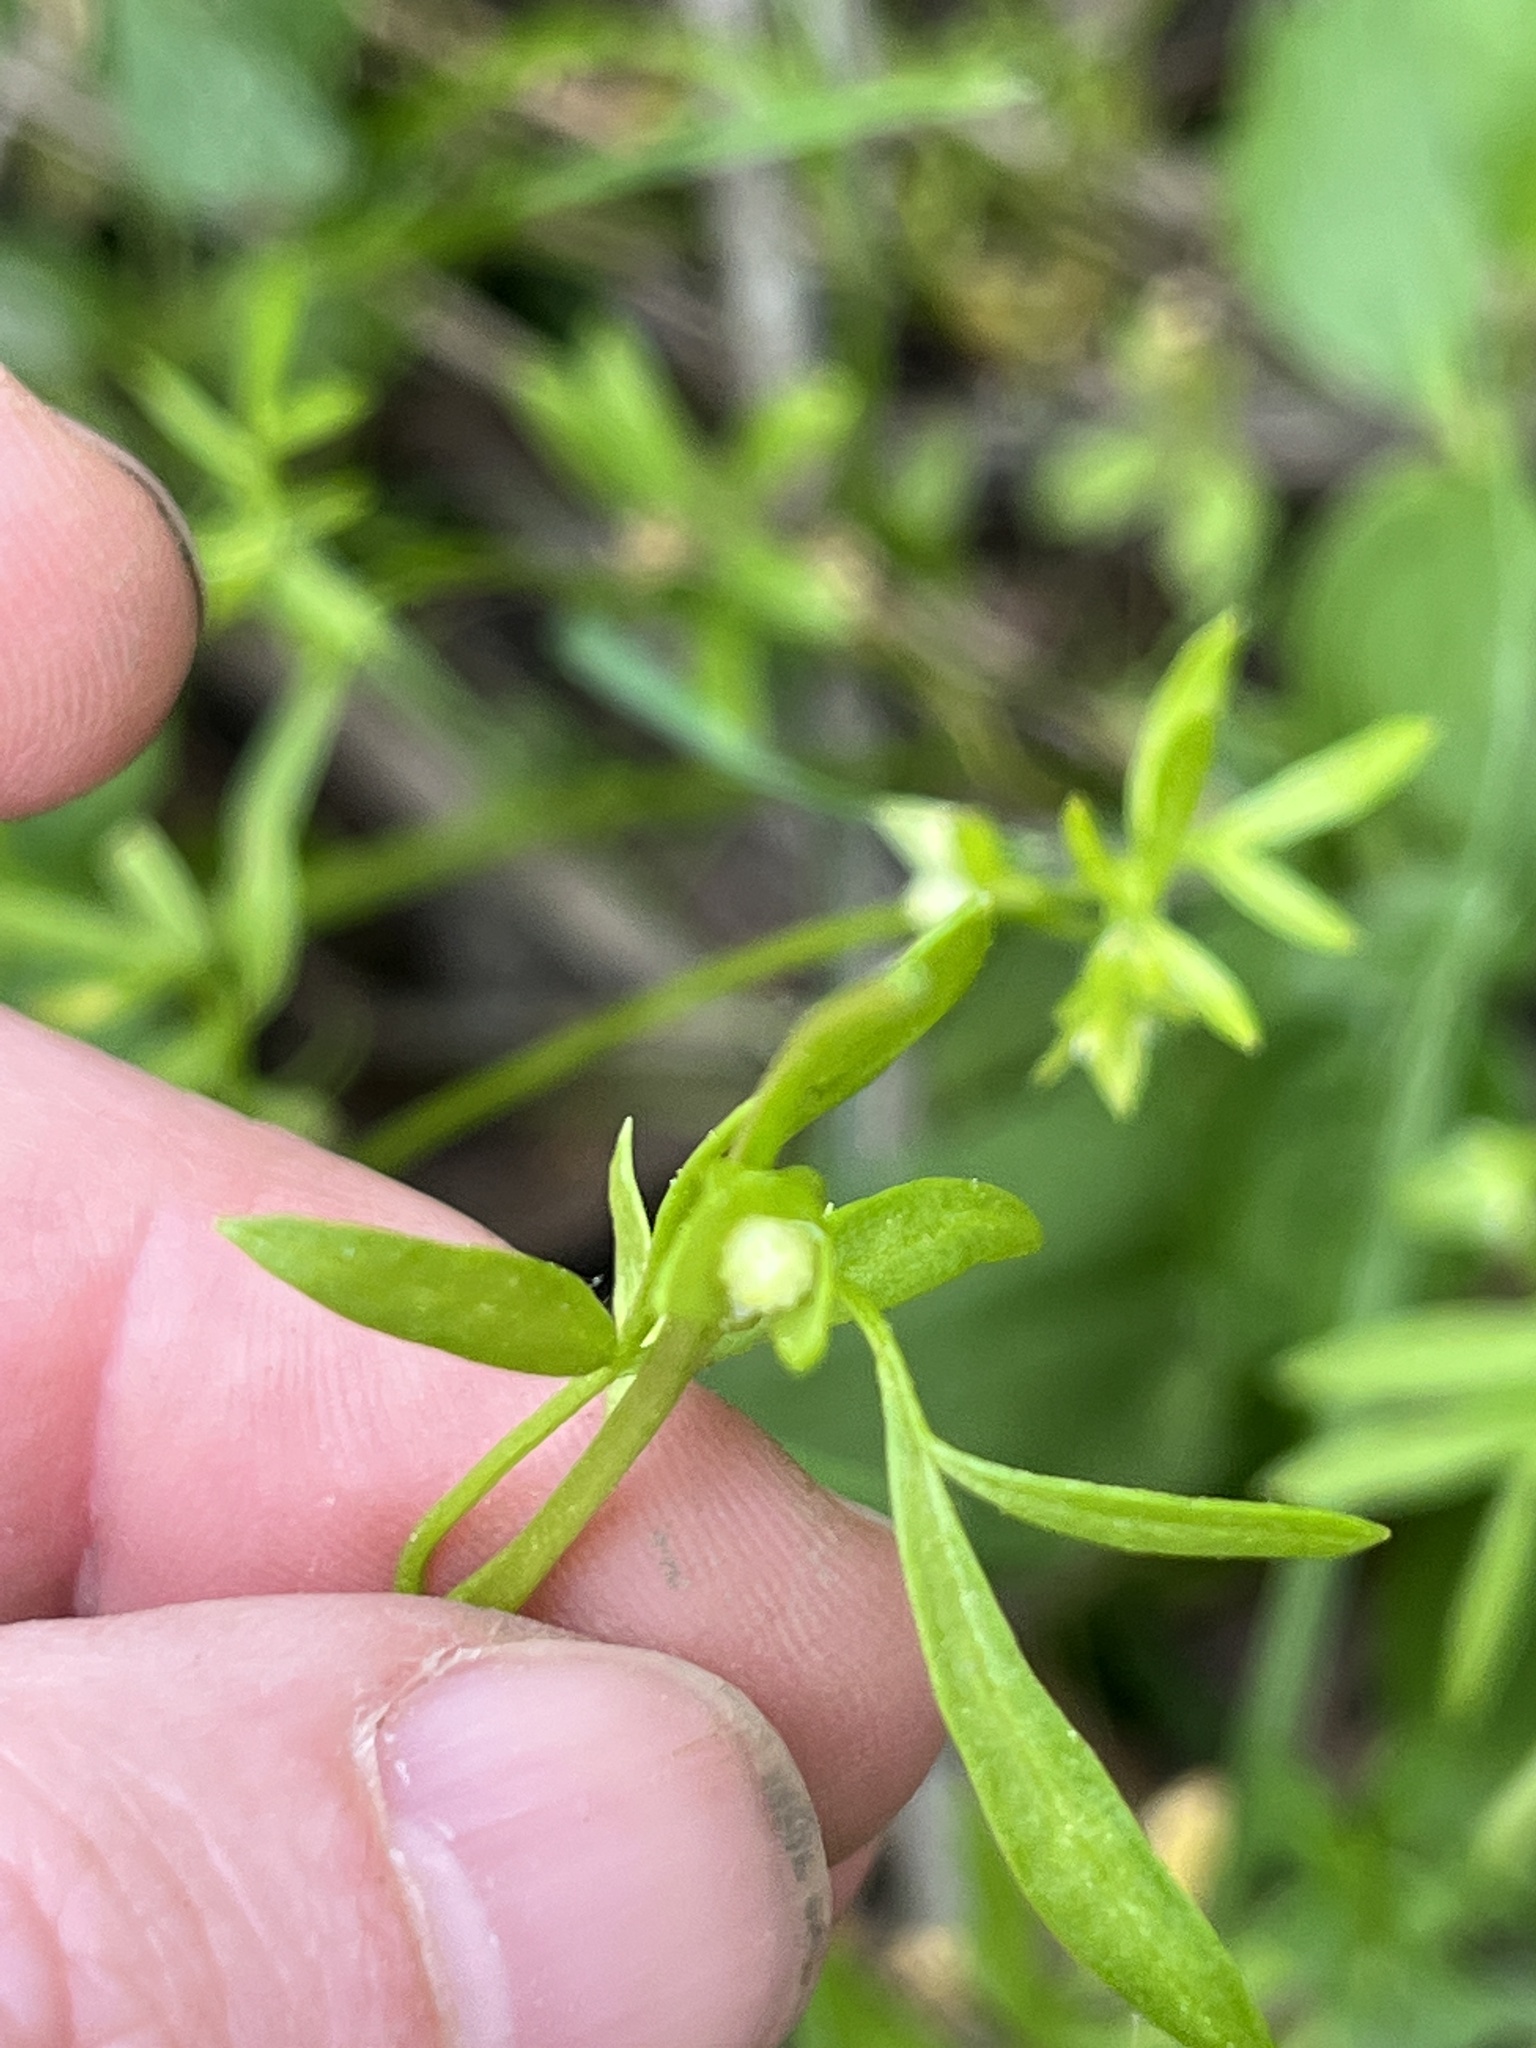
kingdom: Plantae
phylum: Tracheophyta
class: Magnoliopsida
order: Brassicales
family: Limnanthaceae
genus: Floerkea
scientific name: Floerkea proserpinacoides
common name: False mermaid
